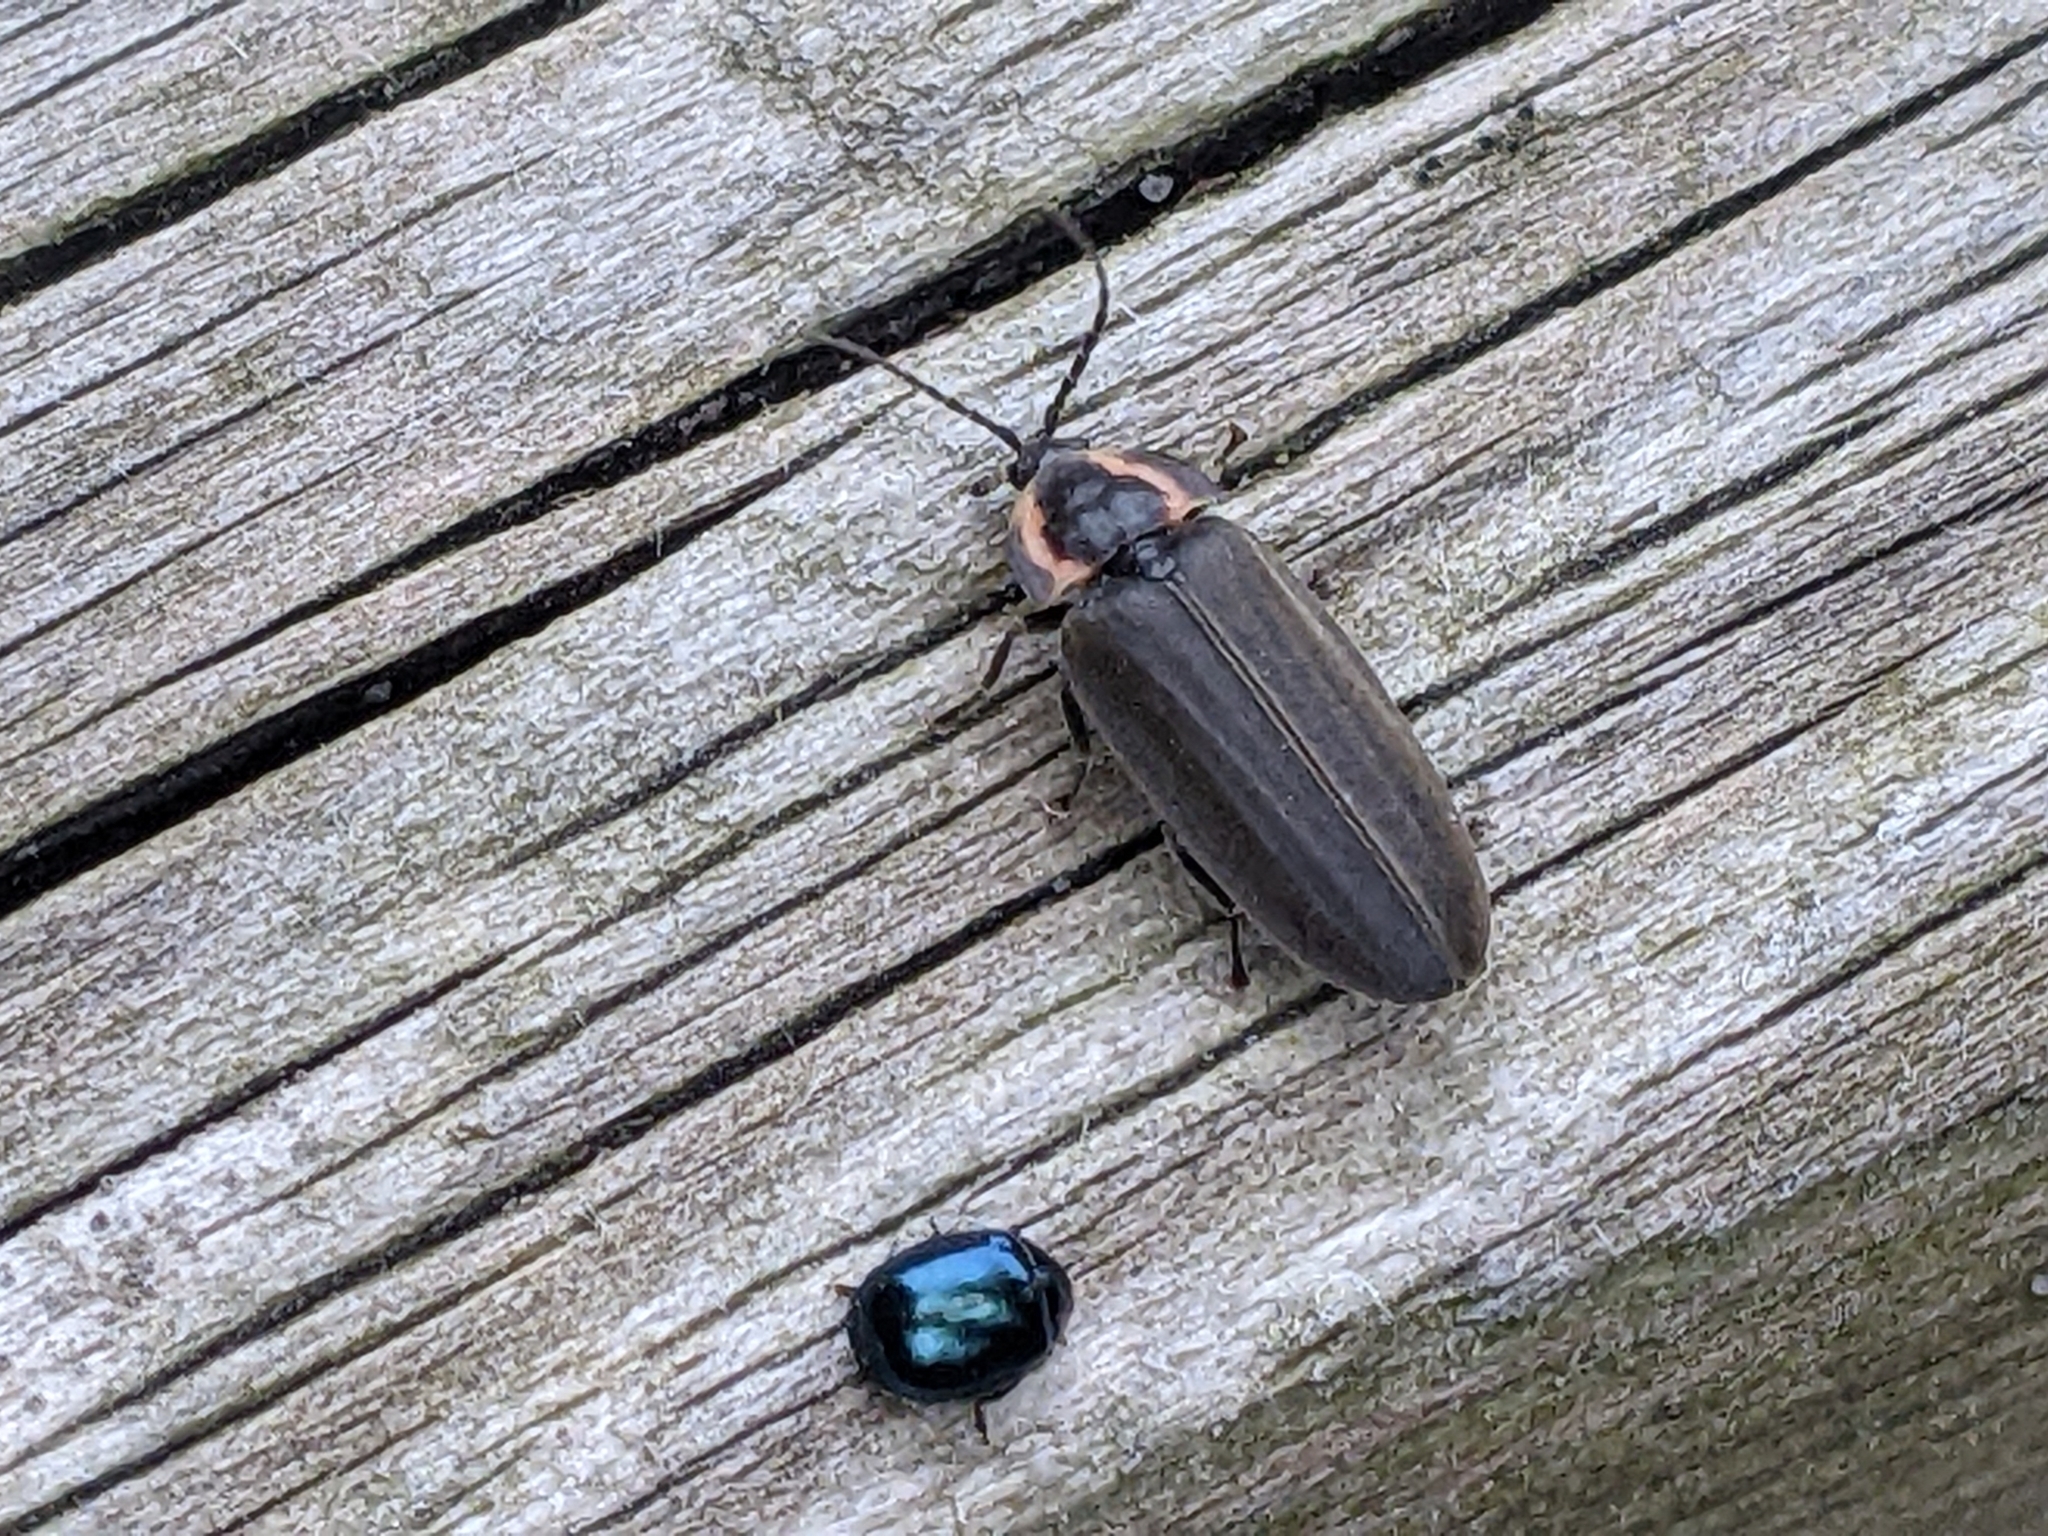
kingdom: Animalia
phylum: Arthropoda
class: Insecta
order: Coleoptera
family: Lampyridae
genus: Photinus
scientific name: Photinus corrusca
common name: Winter firefly
